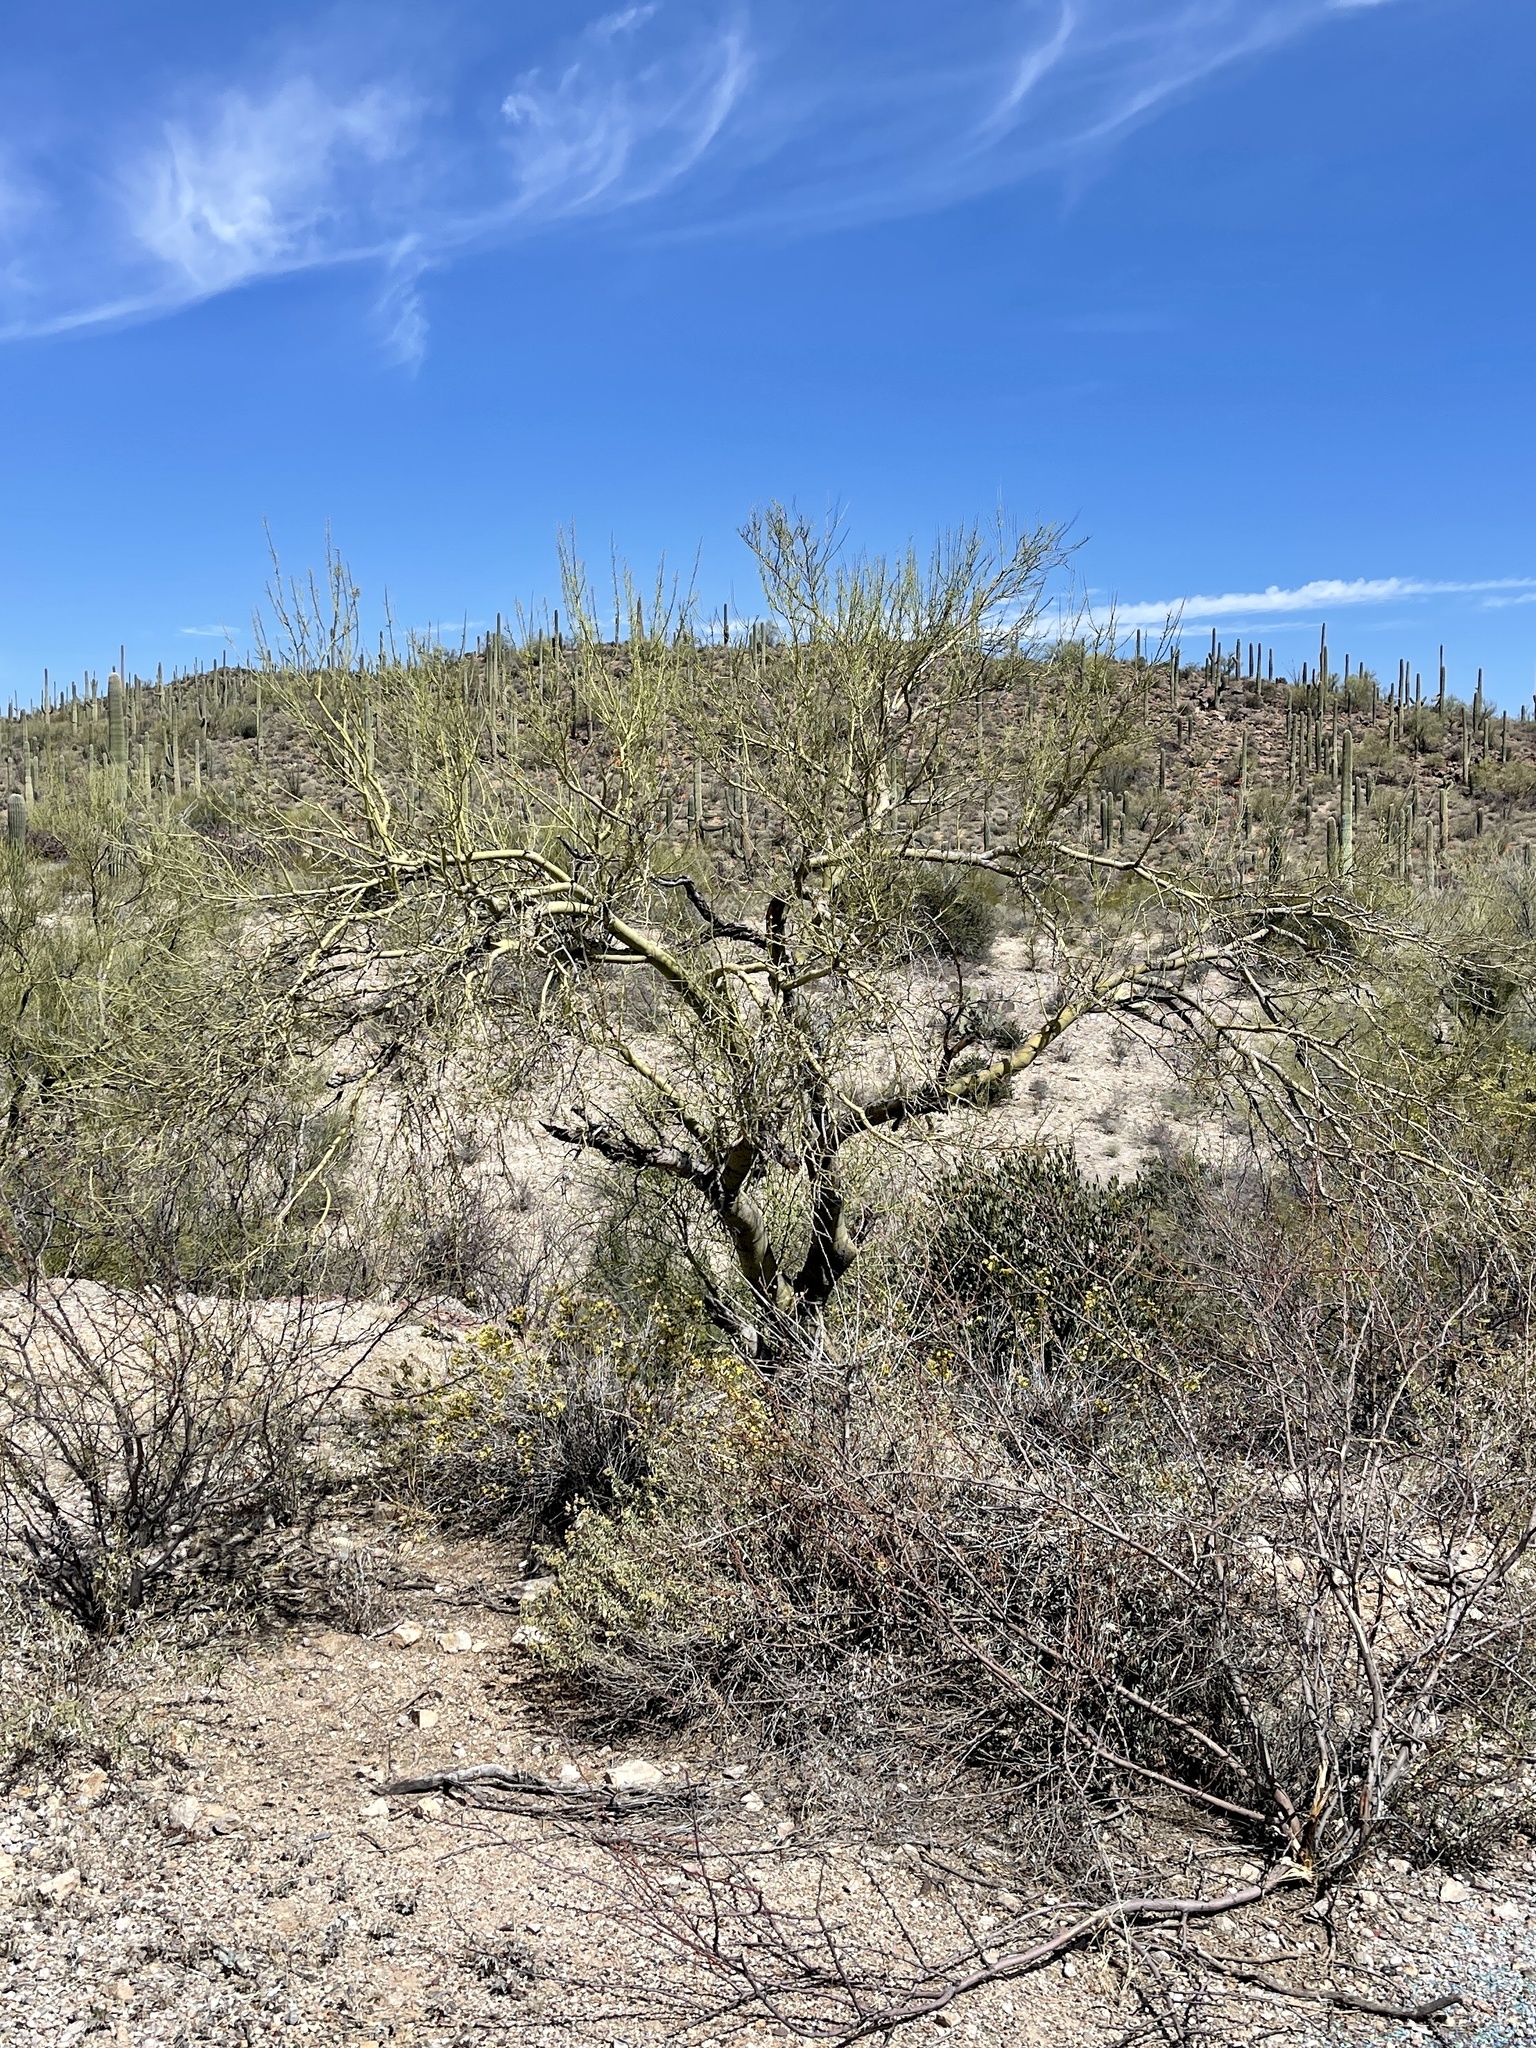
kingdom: Plantae
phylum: Tracheophyta
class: Magnoliopsida
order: Fabales
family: Fabaceae
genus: Parkinsonia
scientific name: Parkinsonia microphylla
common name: Yellow paloverde
